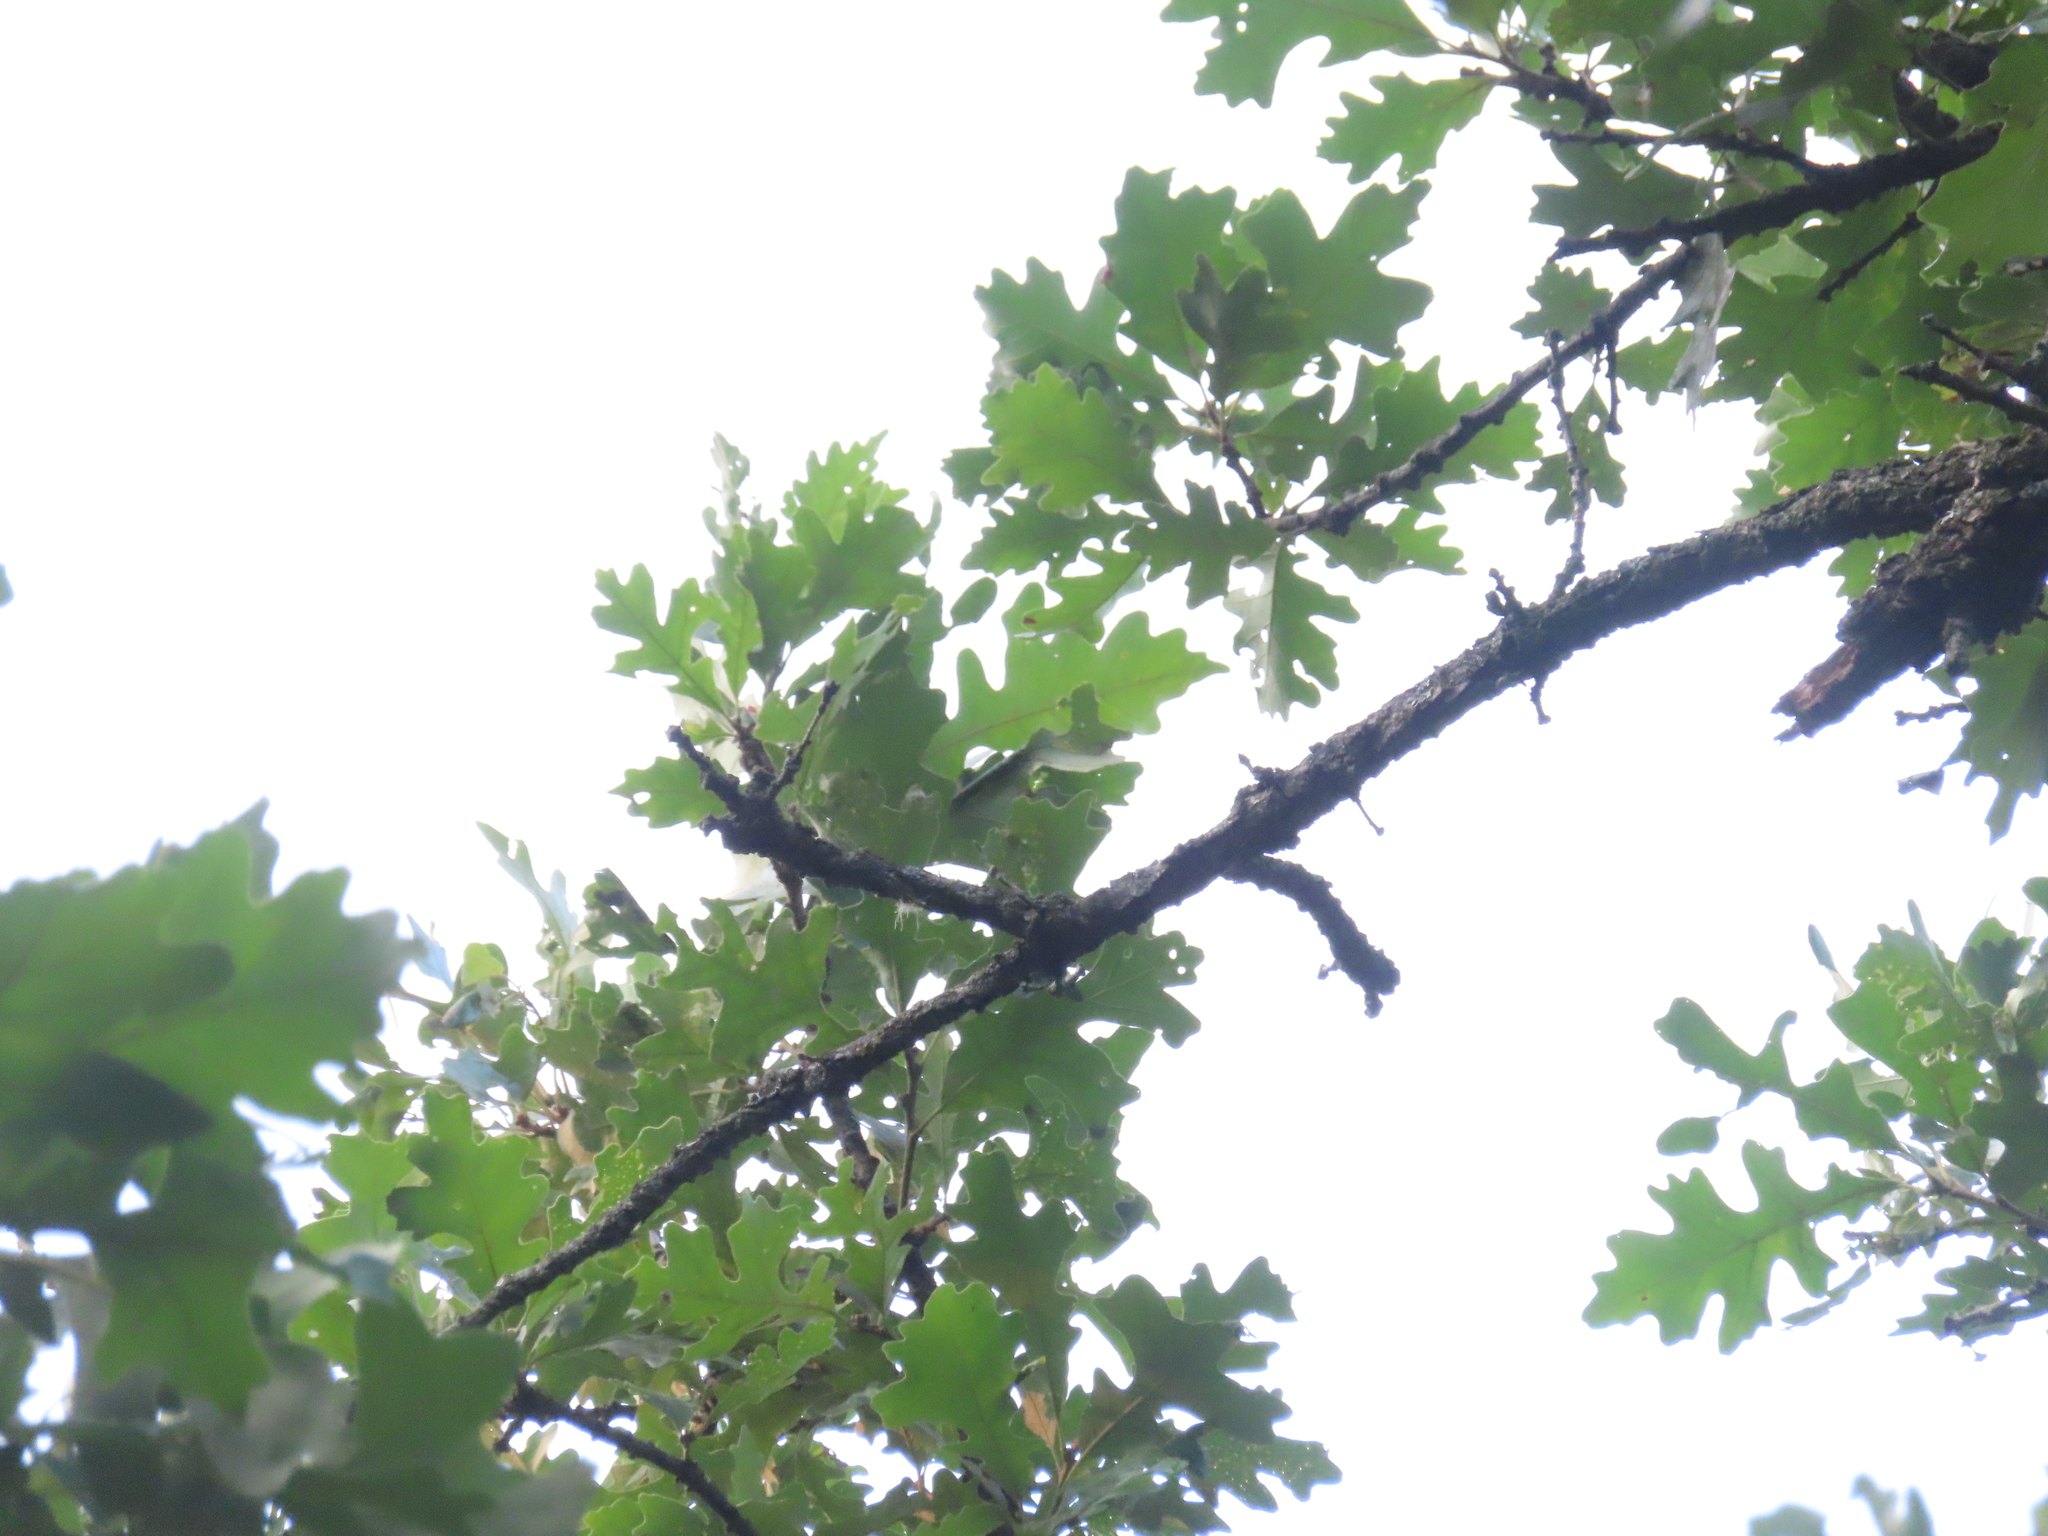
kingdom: Plantae
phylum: Tracheophyta
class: Magnoliopsida
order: Fagales
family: Fagaceae
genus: Quercus
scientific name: Quercus macrocarpa
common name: Bur oak
